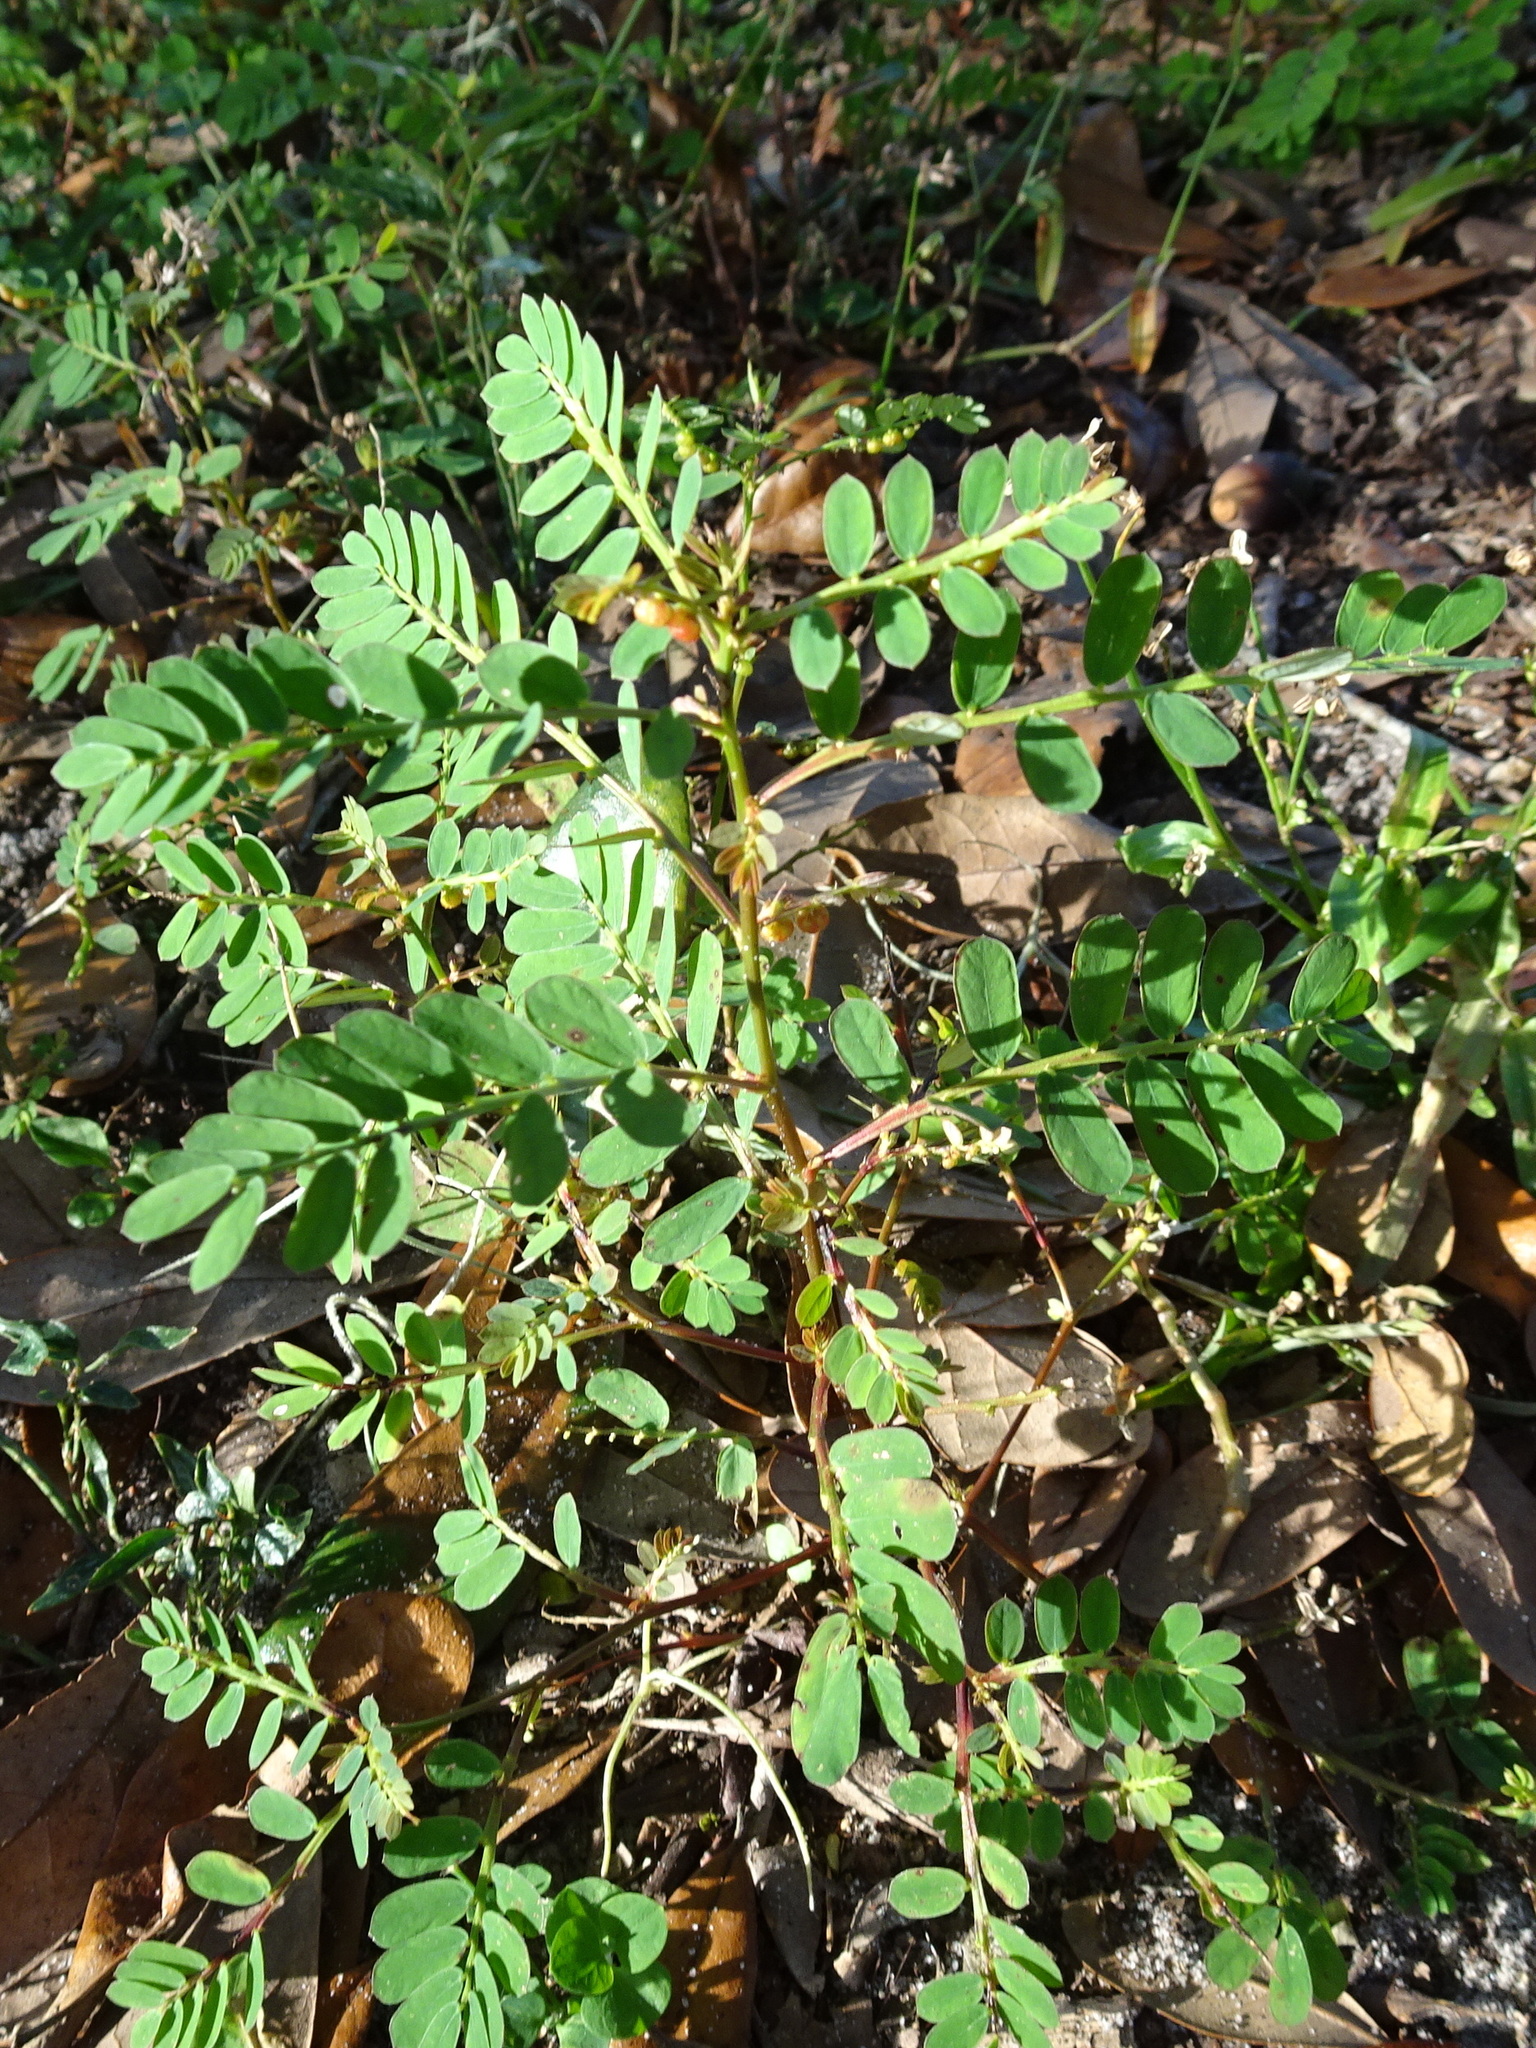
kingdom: Plantae
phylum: Tracheophyta
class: Magnoliopsida
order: Malpighiales
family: Phyllanthaceae
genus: Phyllanthus
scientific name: Phyllanthus urinaria
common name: Chamber bitter
